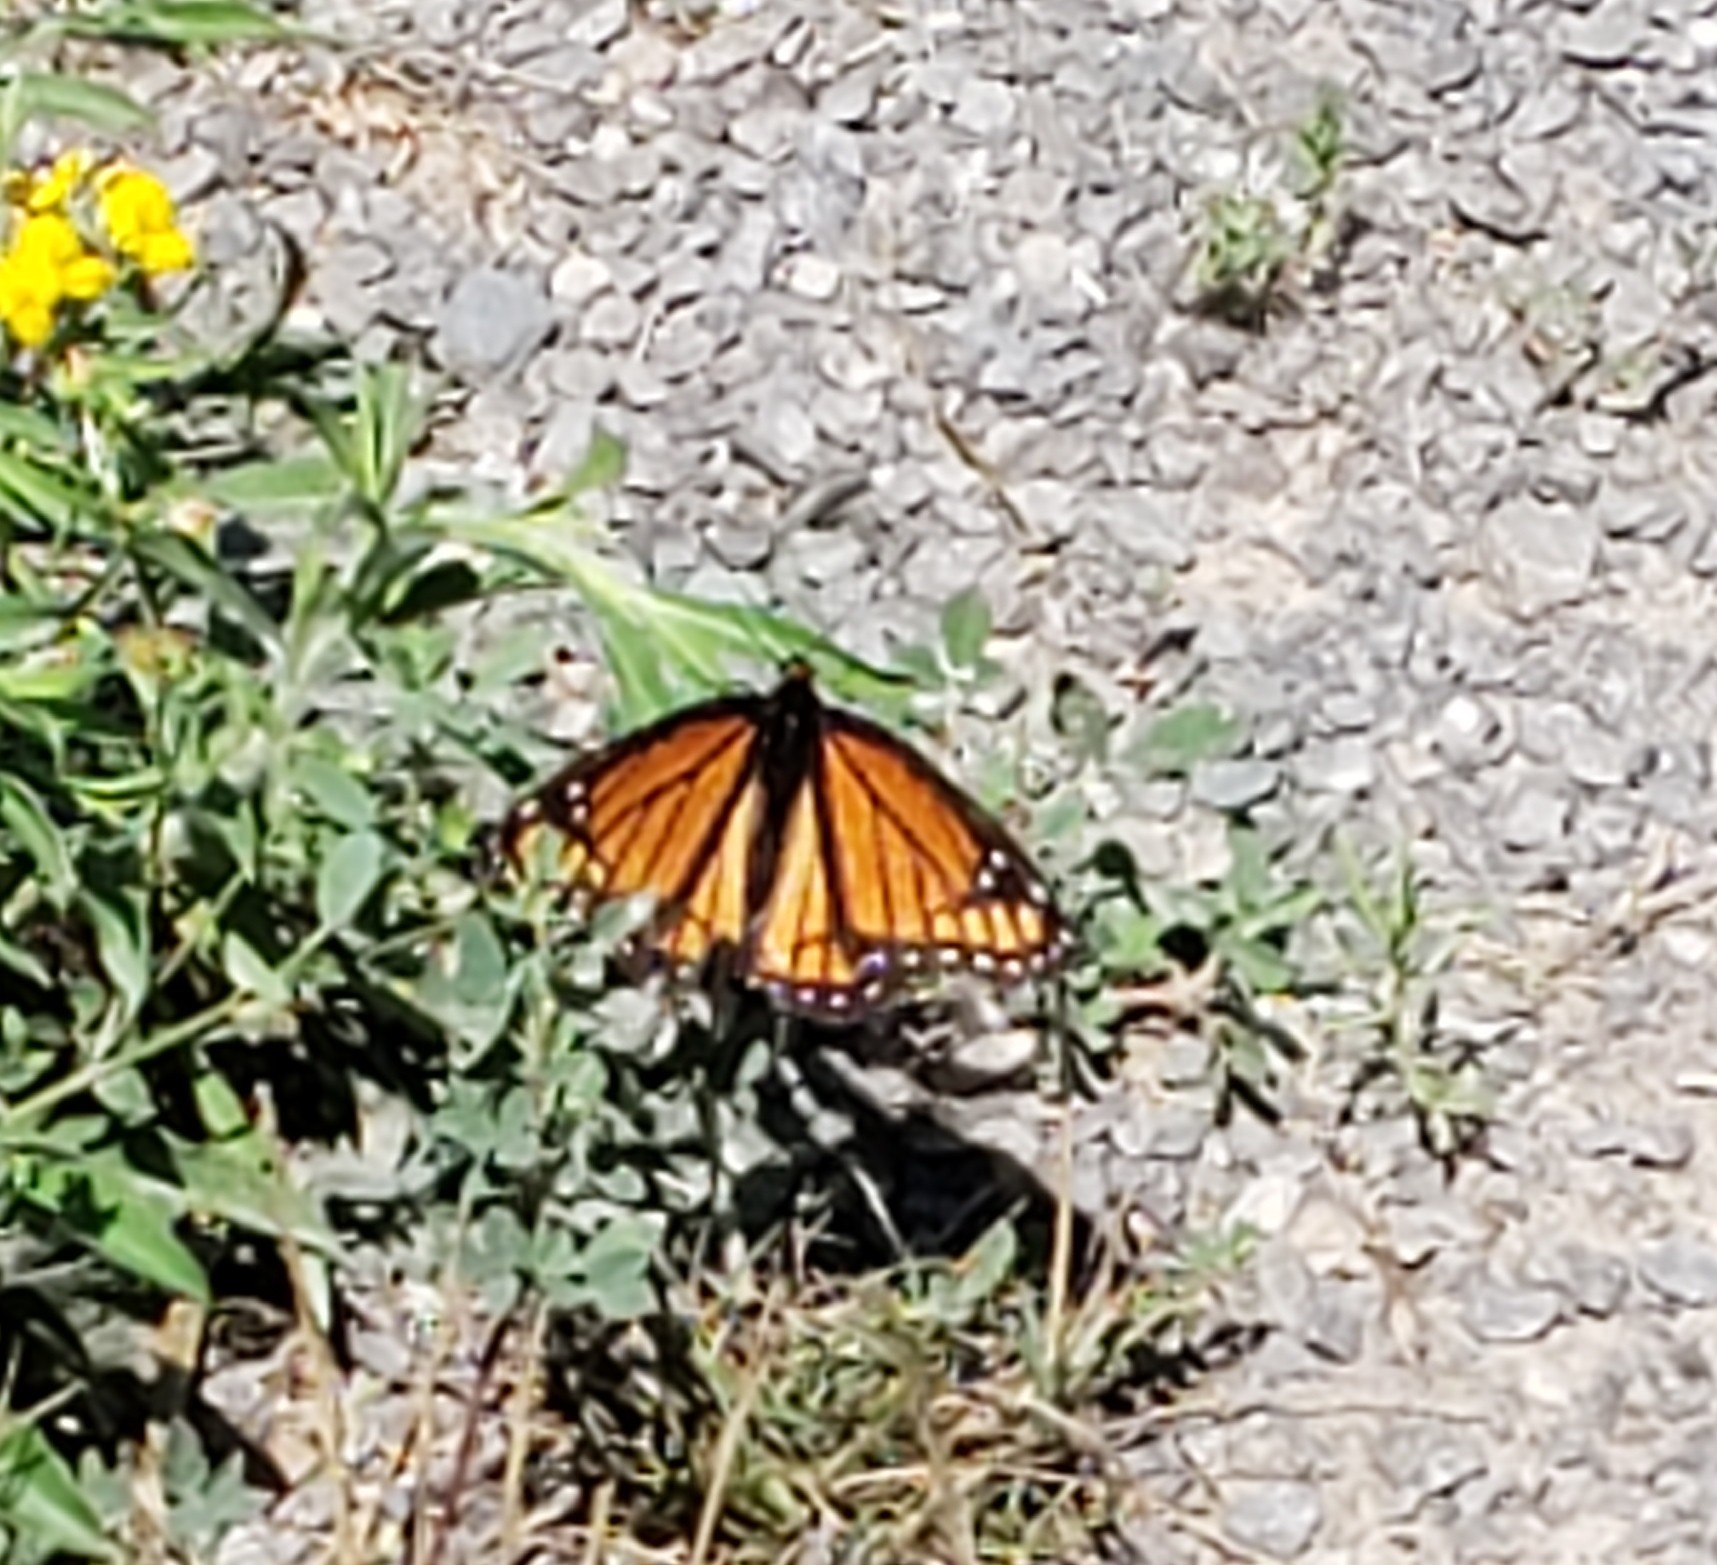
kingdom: Animalia
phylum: Arthropoda
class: Insecta
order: Lepidoptera
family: Nymphalidae
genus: Limenitis
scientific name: Limenitis archippus
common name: Viceroy
